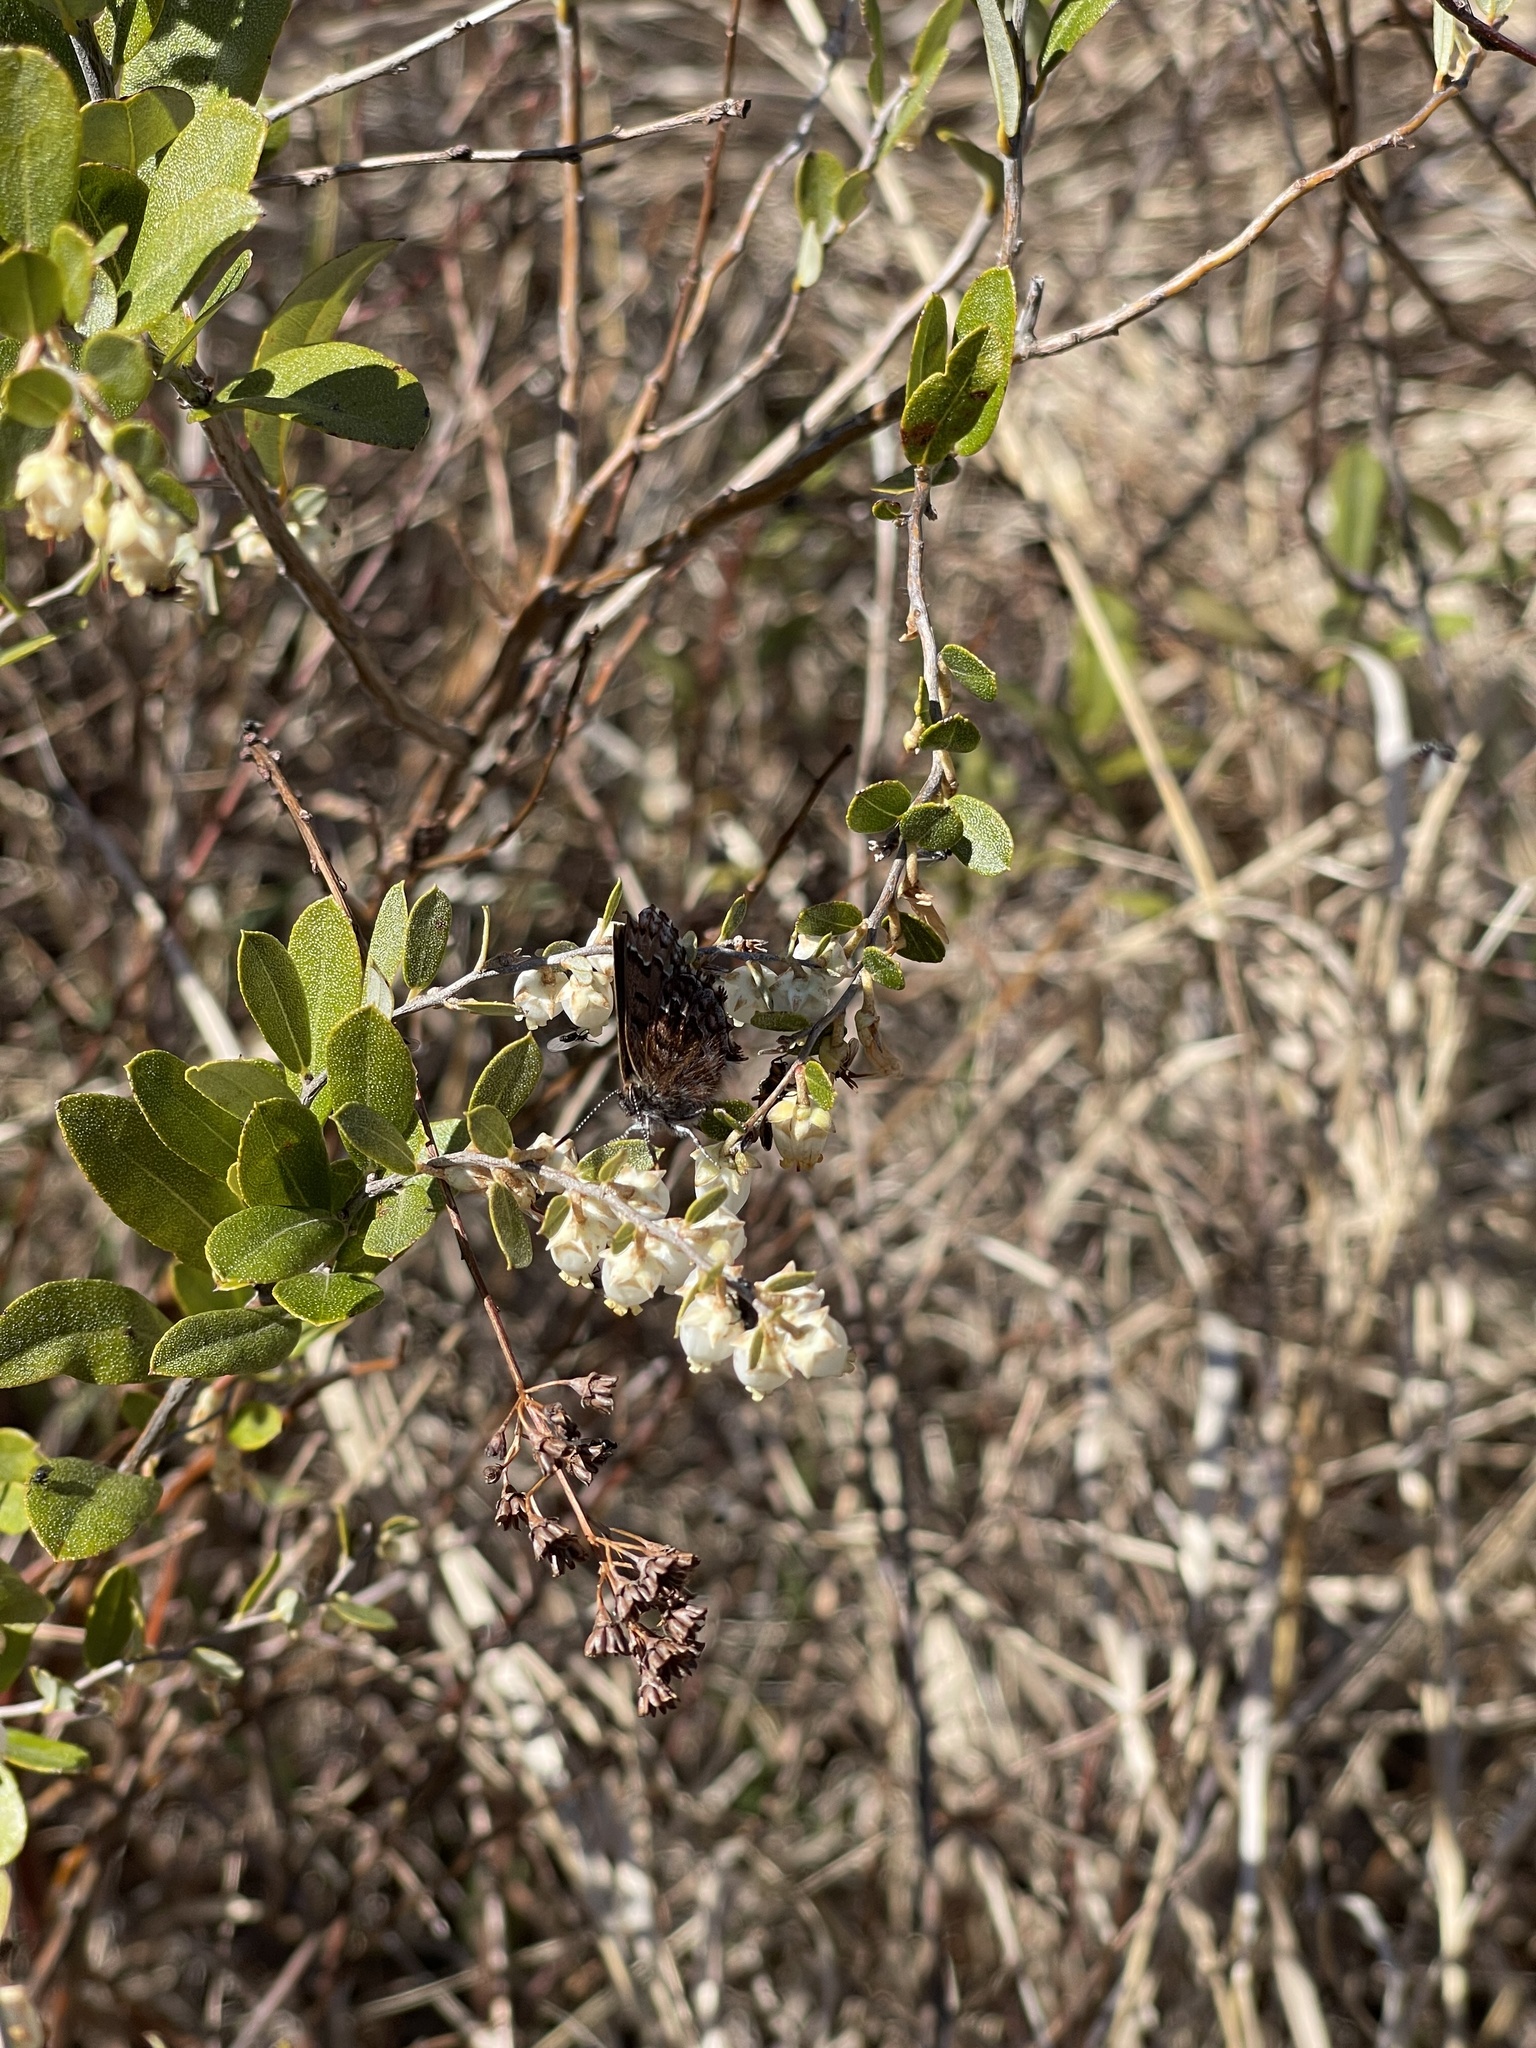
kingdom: Animalia
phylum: Arthropoda
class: Insecta
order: Lepidoptera
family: Lycaenidae
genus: Incisalia
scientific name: Incisalia niphon
